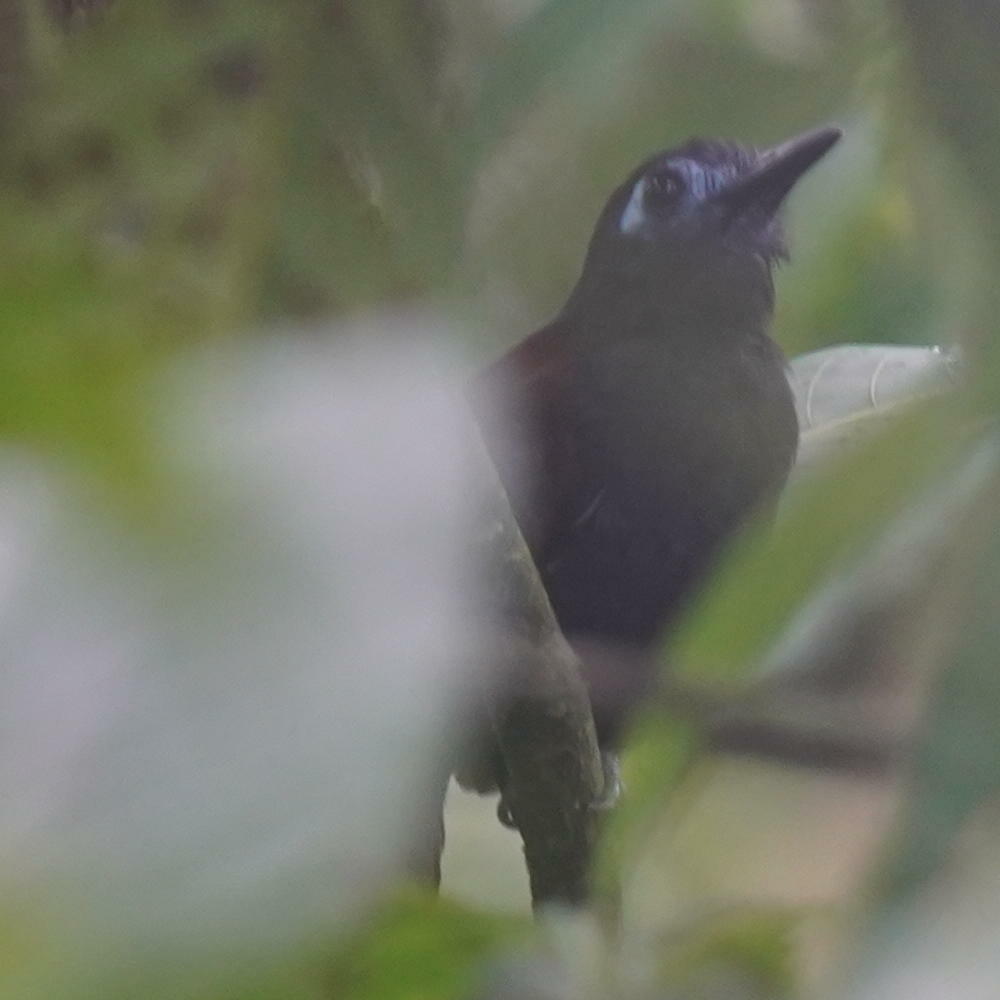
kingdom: Animalia
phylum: Chordata
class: Aves
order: Passeriformes
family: Thamnophilidae
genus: Myrmeciza
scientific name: Myrmeciza exsul
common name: Chestnut-backed antbird
